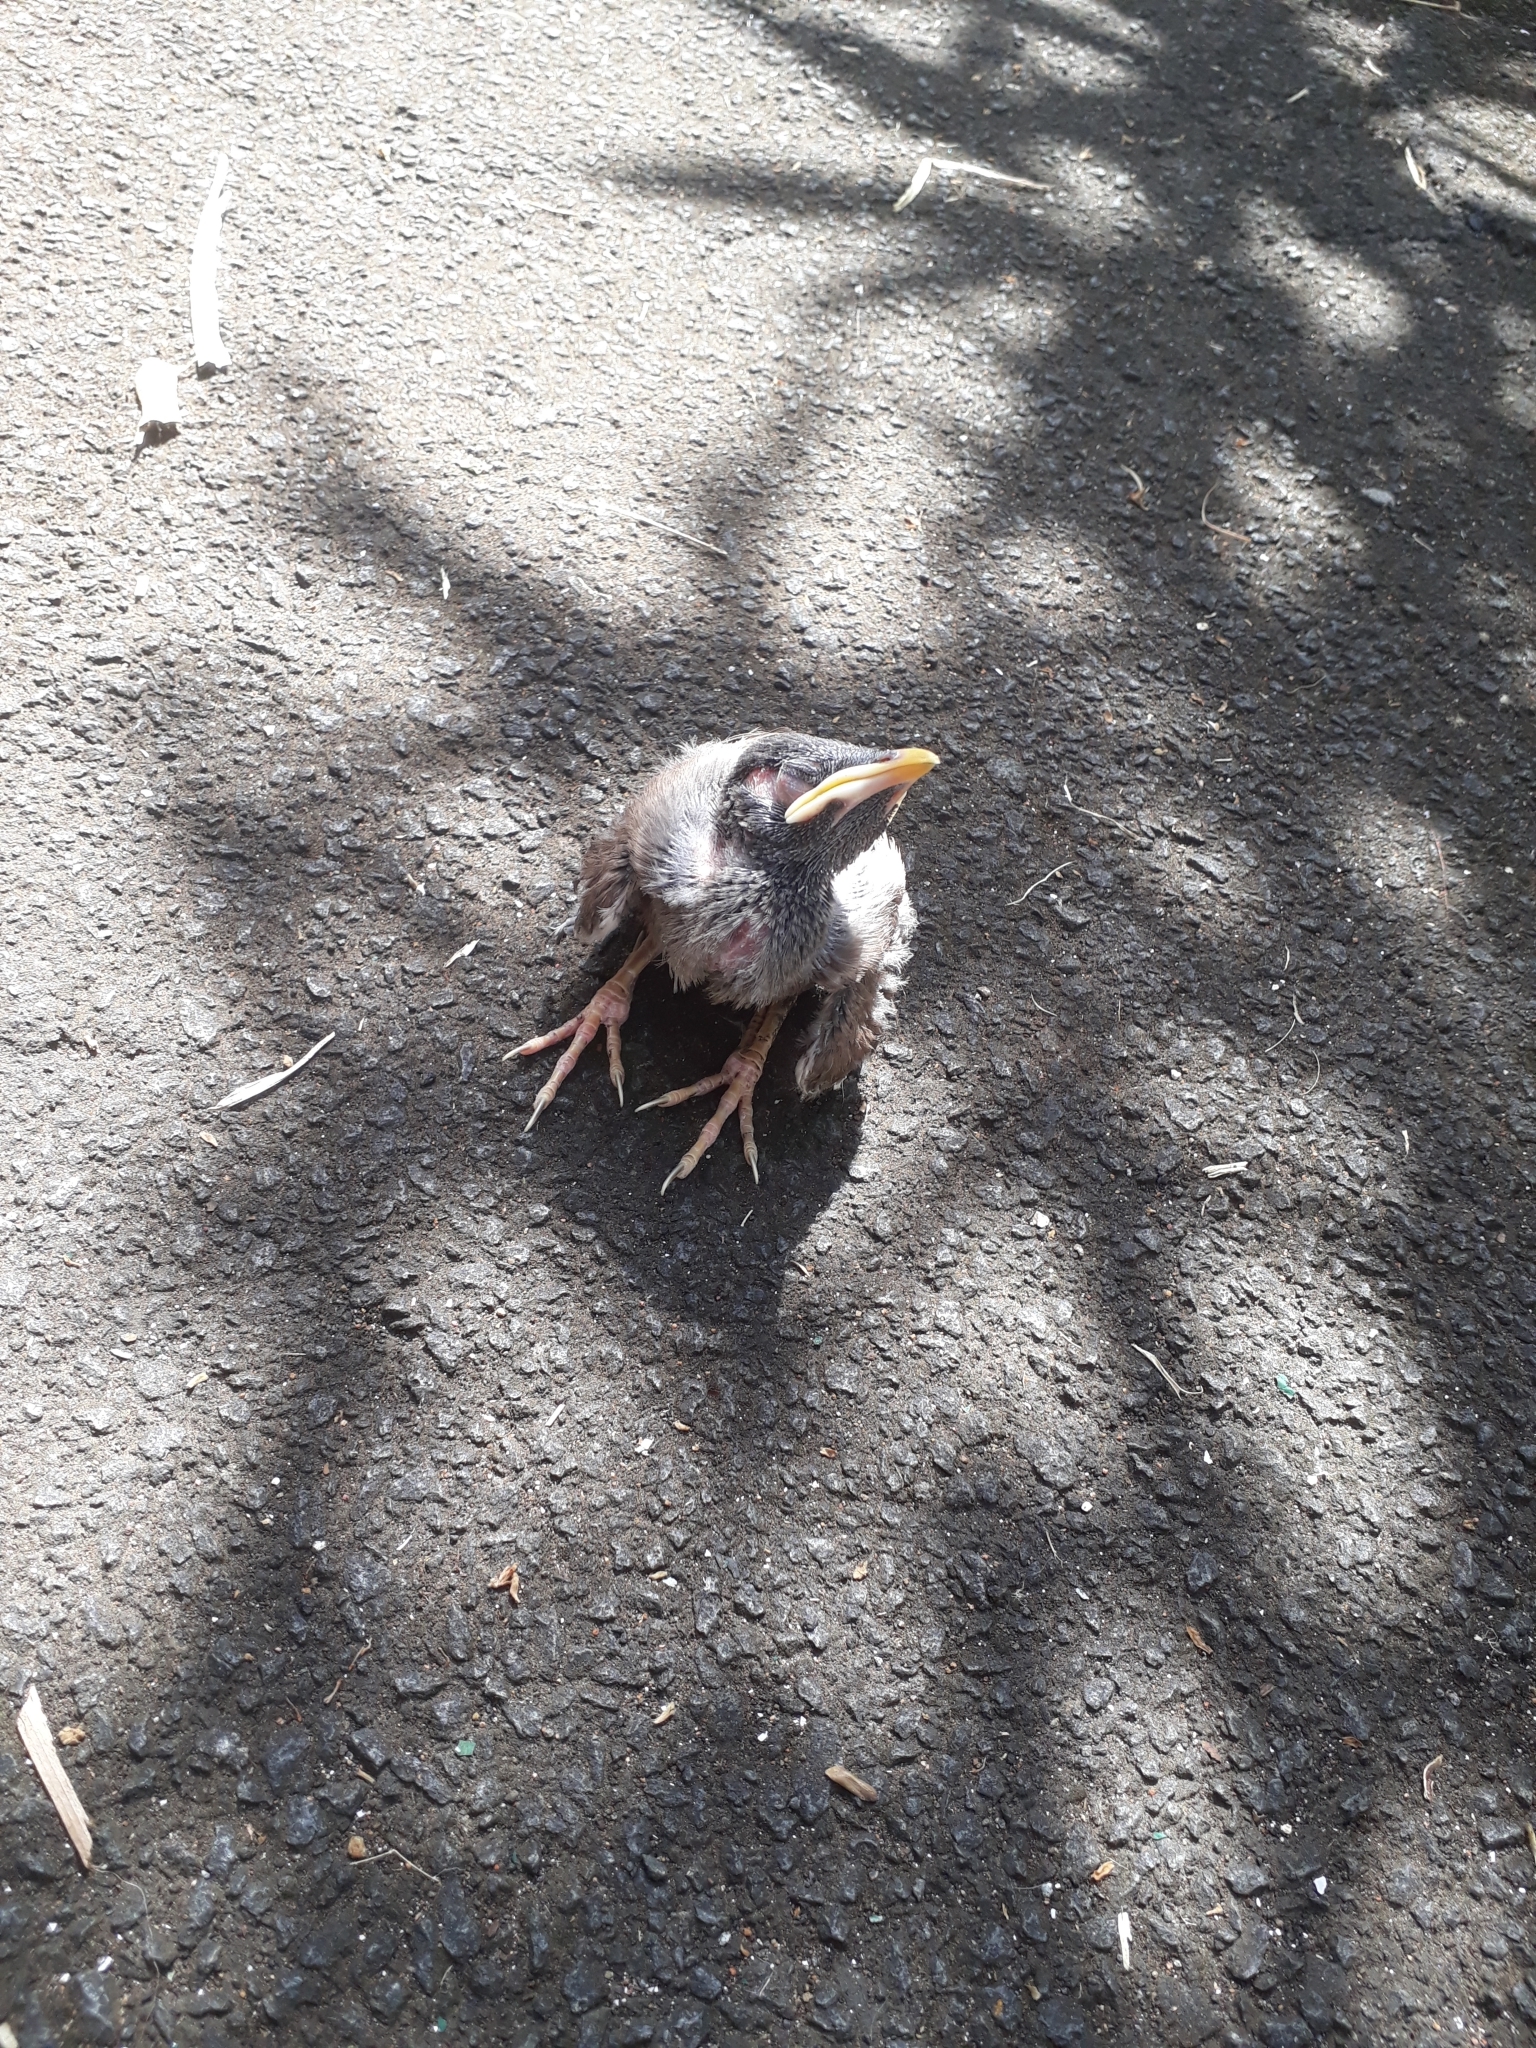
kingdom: Animalia
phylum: Chordata
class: Aves
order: Passeriformes
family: Sturnidae
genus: Acridotheres
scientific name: Acridotheres tristis
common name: Common myna
